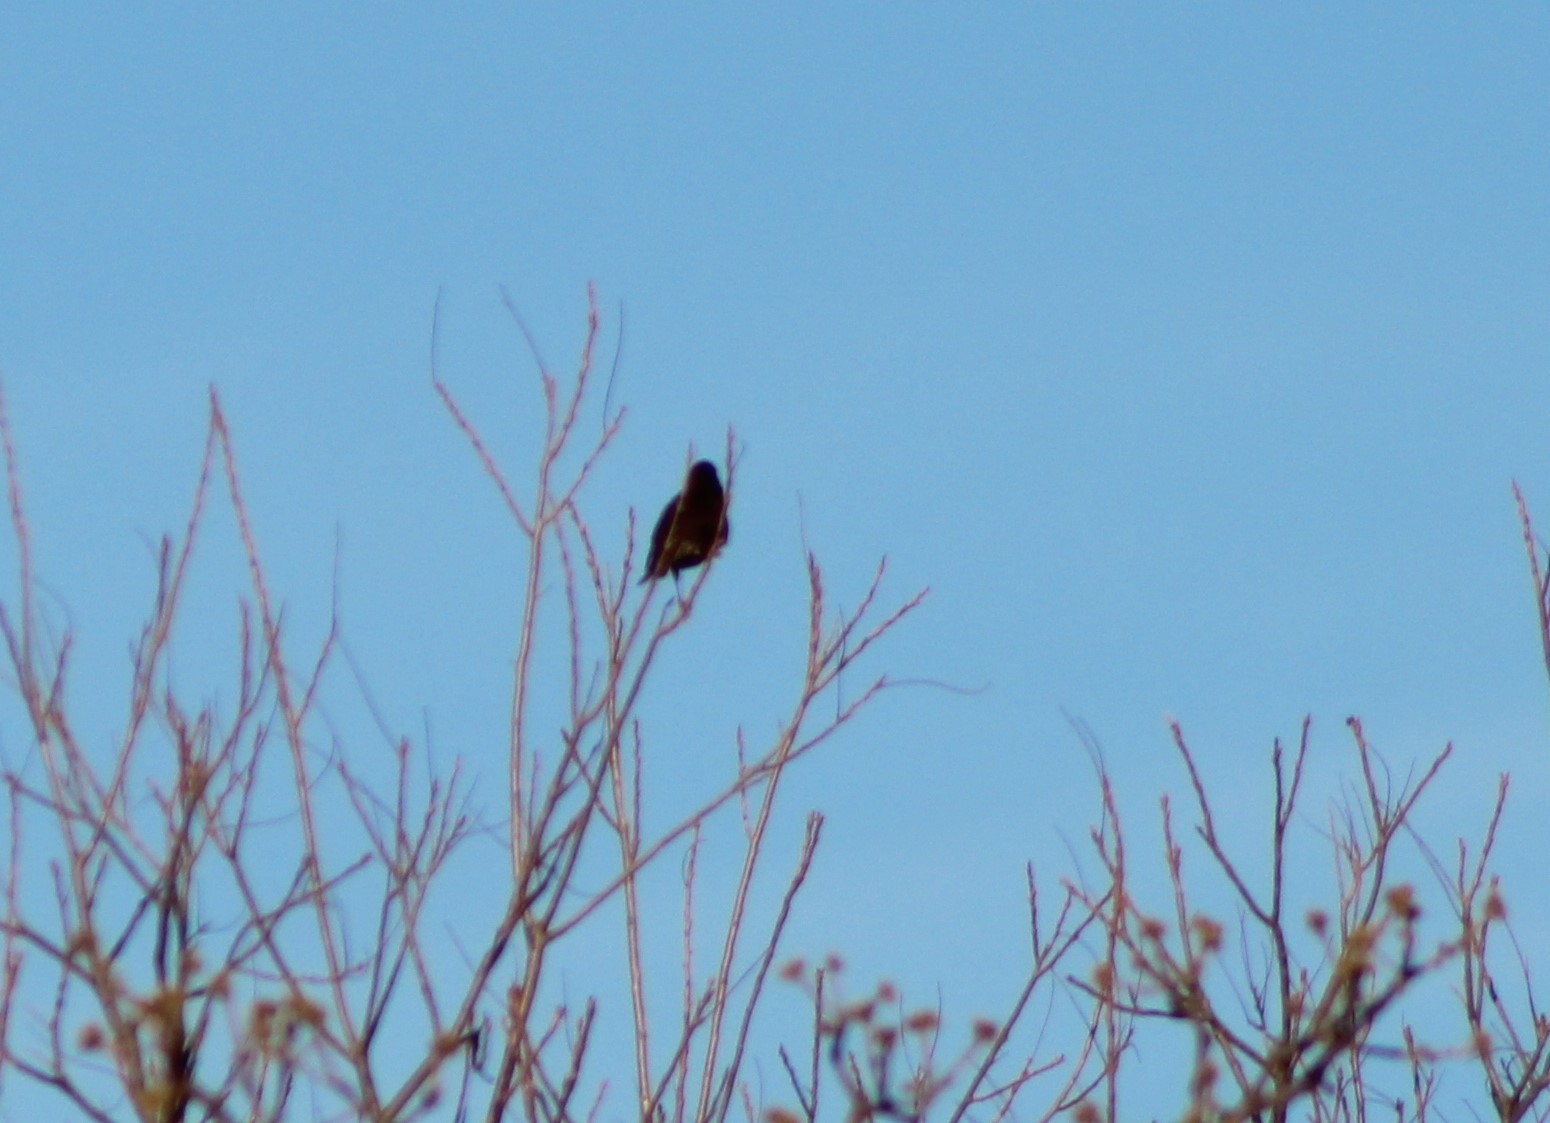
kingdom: Animalia
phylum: Chordata
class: Aves
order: Passeriformes
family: Sturnidae
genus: Sturnus
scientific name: Sturnus vulgaris
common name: Common starling
